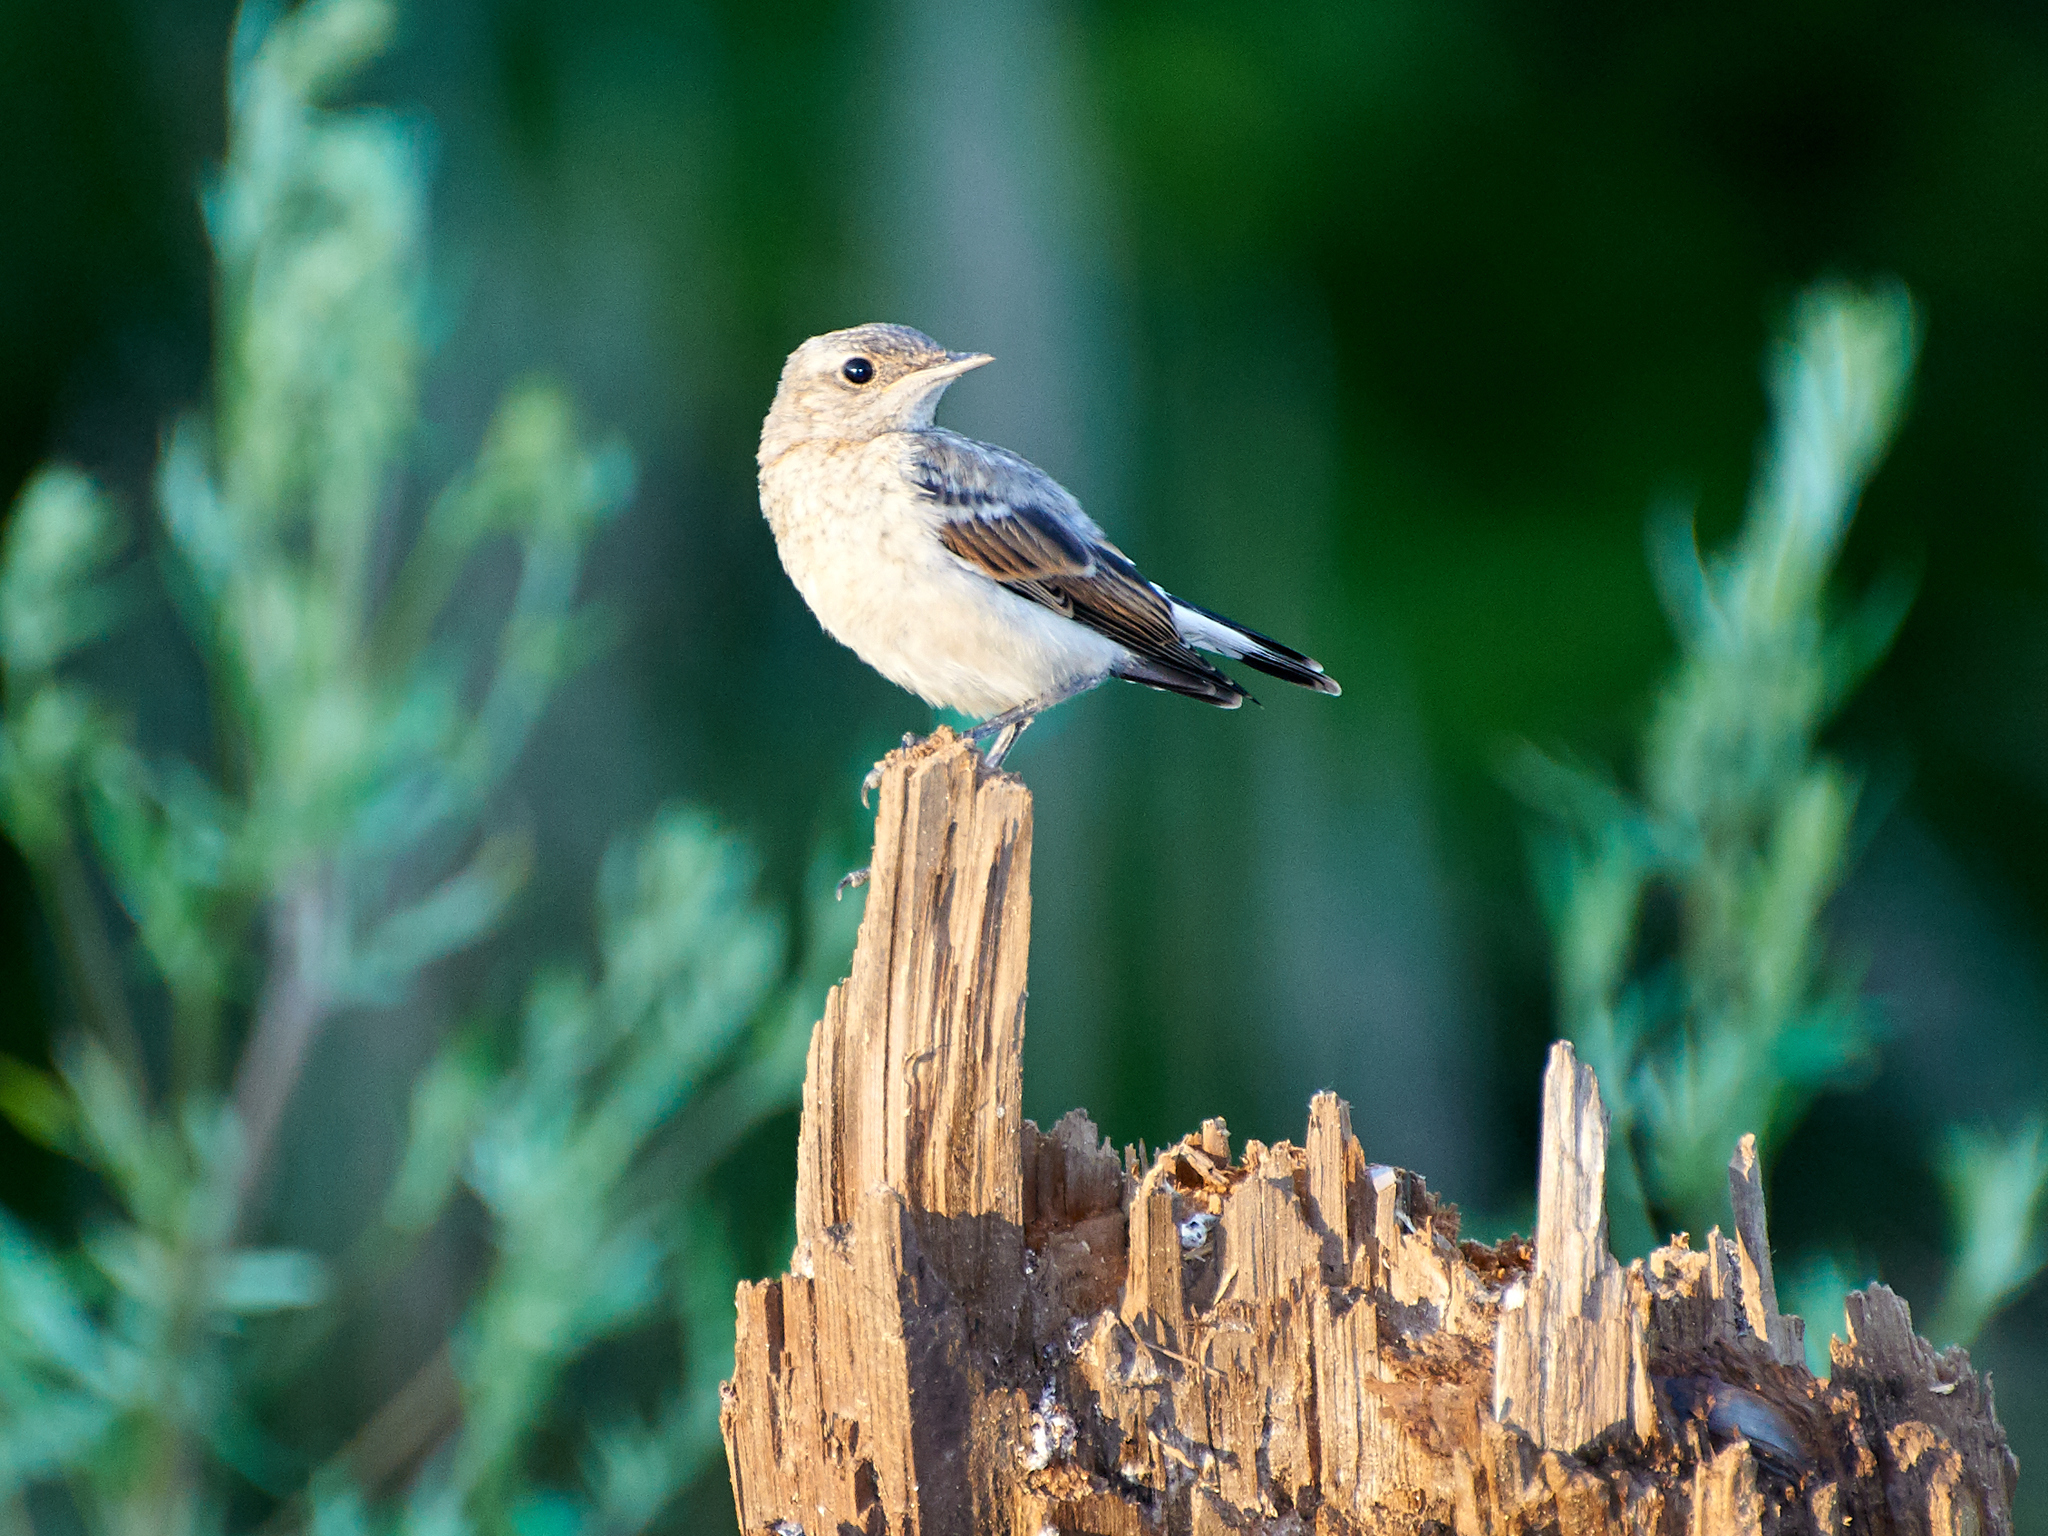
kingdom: Animalia
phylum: Chordata
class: Aves
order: Passeriformes
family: Muscicapidae
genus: Oenanthe
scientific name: Oenanthe oenanthe
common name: Northern wheatear
